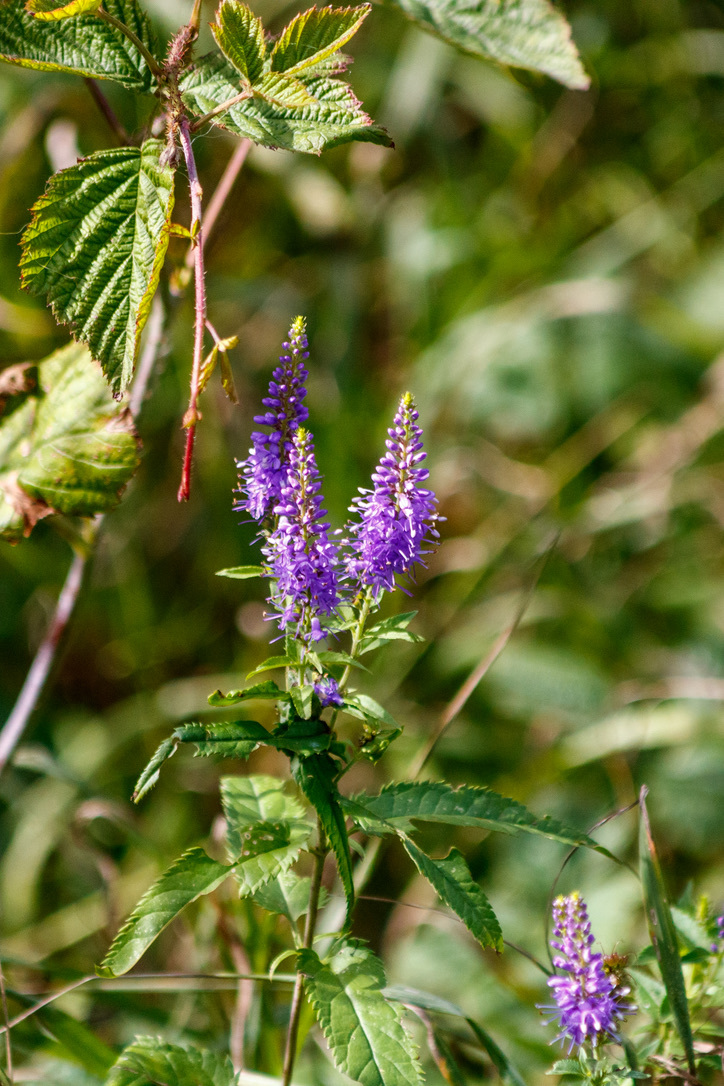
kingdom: Plantae
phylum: Tracheophyta
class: Magnoliopsida
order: Lamiales
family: Plantaginaceae
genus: Veronica
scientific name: Veronica longifolia
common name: Garden speedwell
